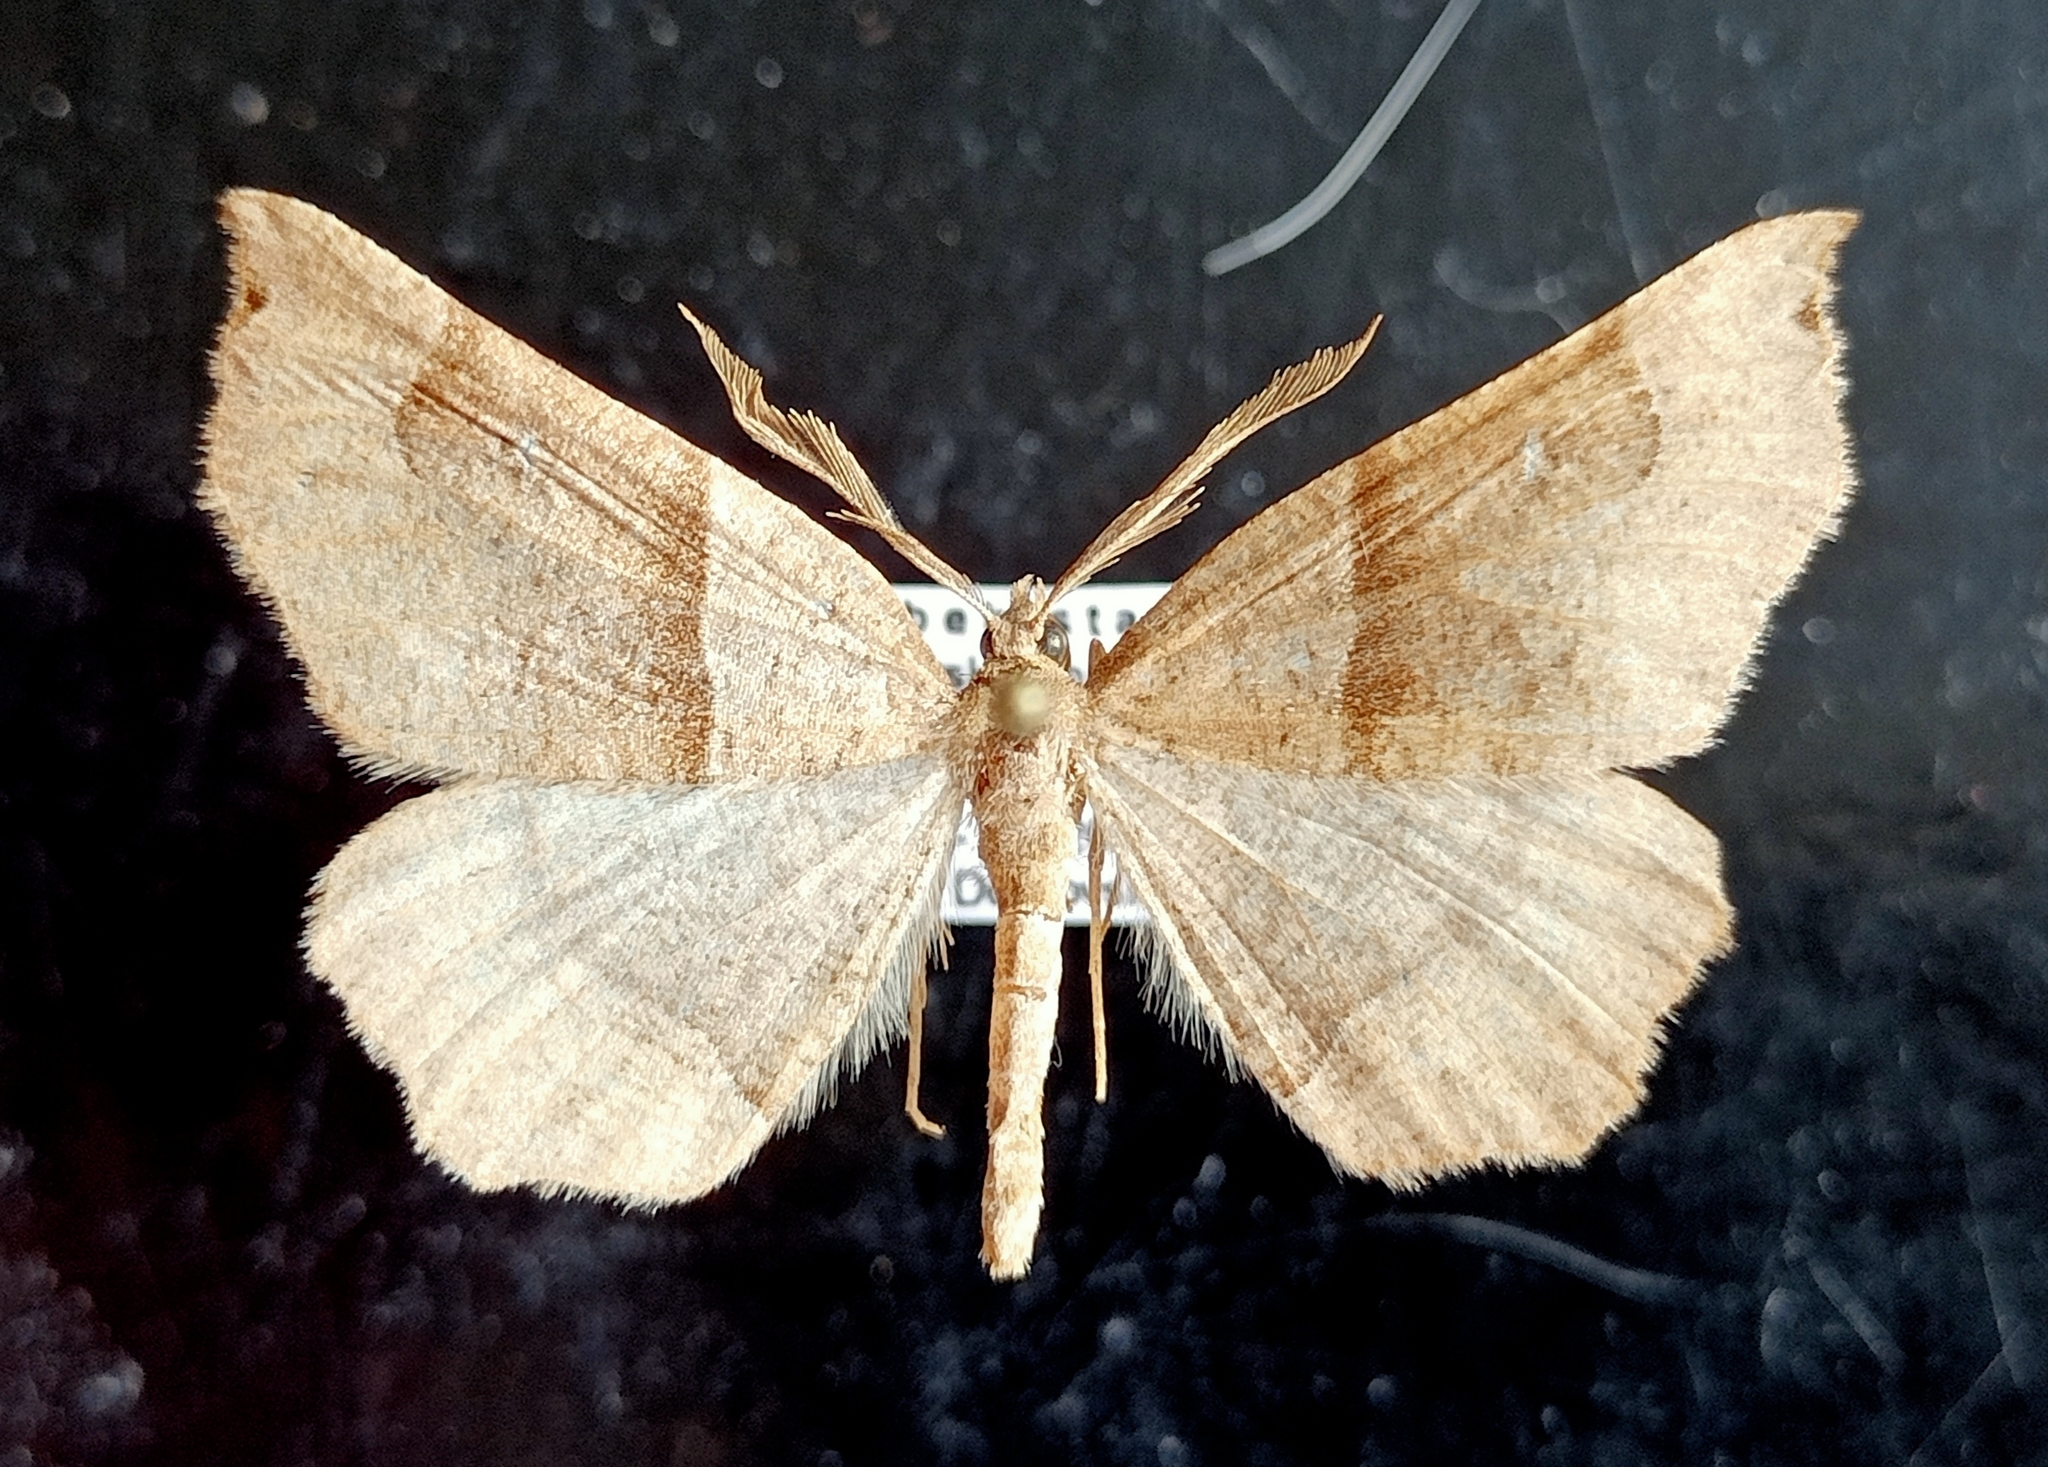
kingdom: Animalia
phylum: Arthropoda
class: Insecta
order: Lepidoptera
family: Geometridae
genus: Artemidora
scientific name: Artemidora alpherakyi
